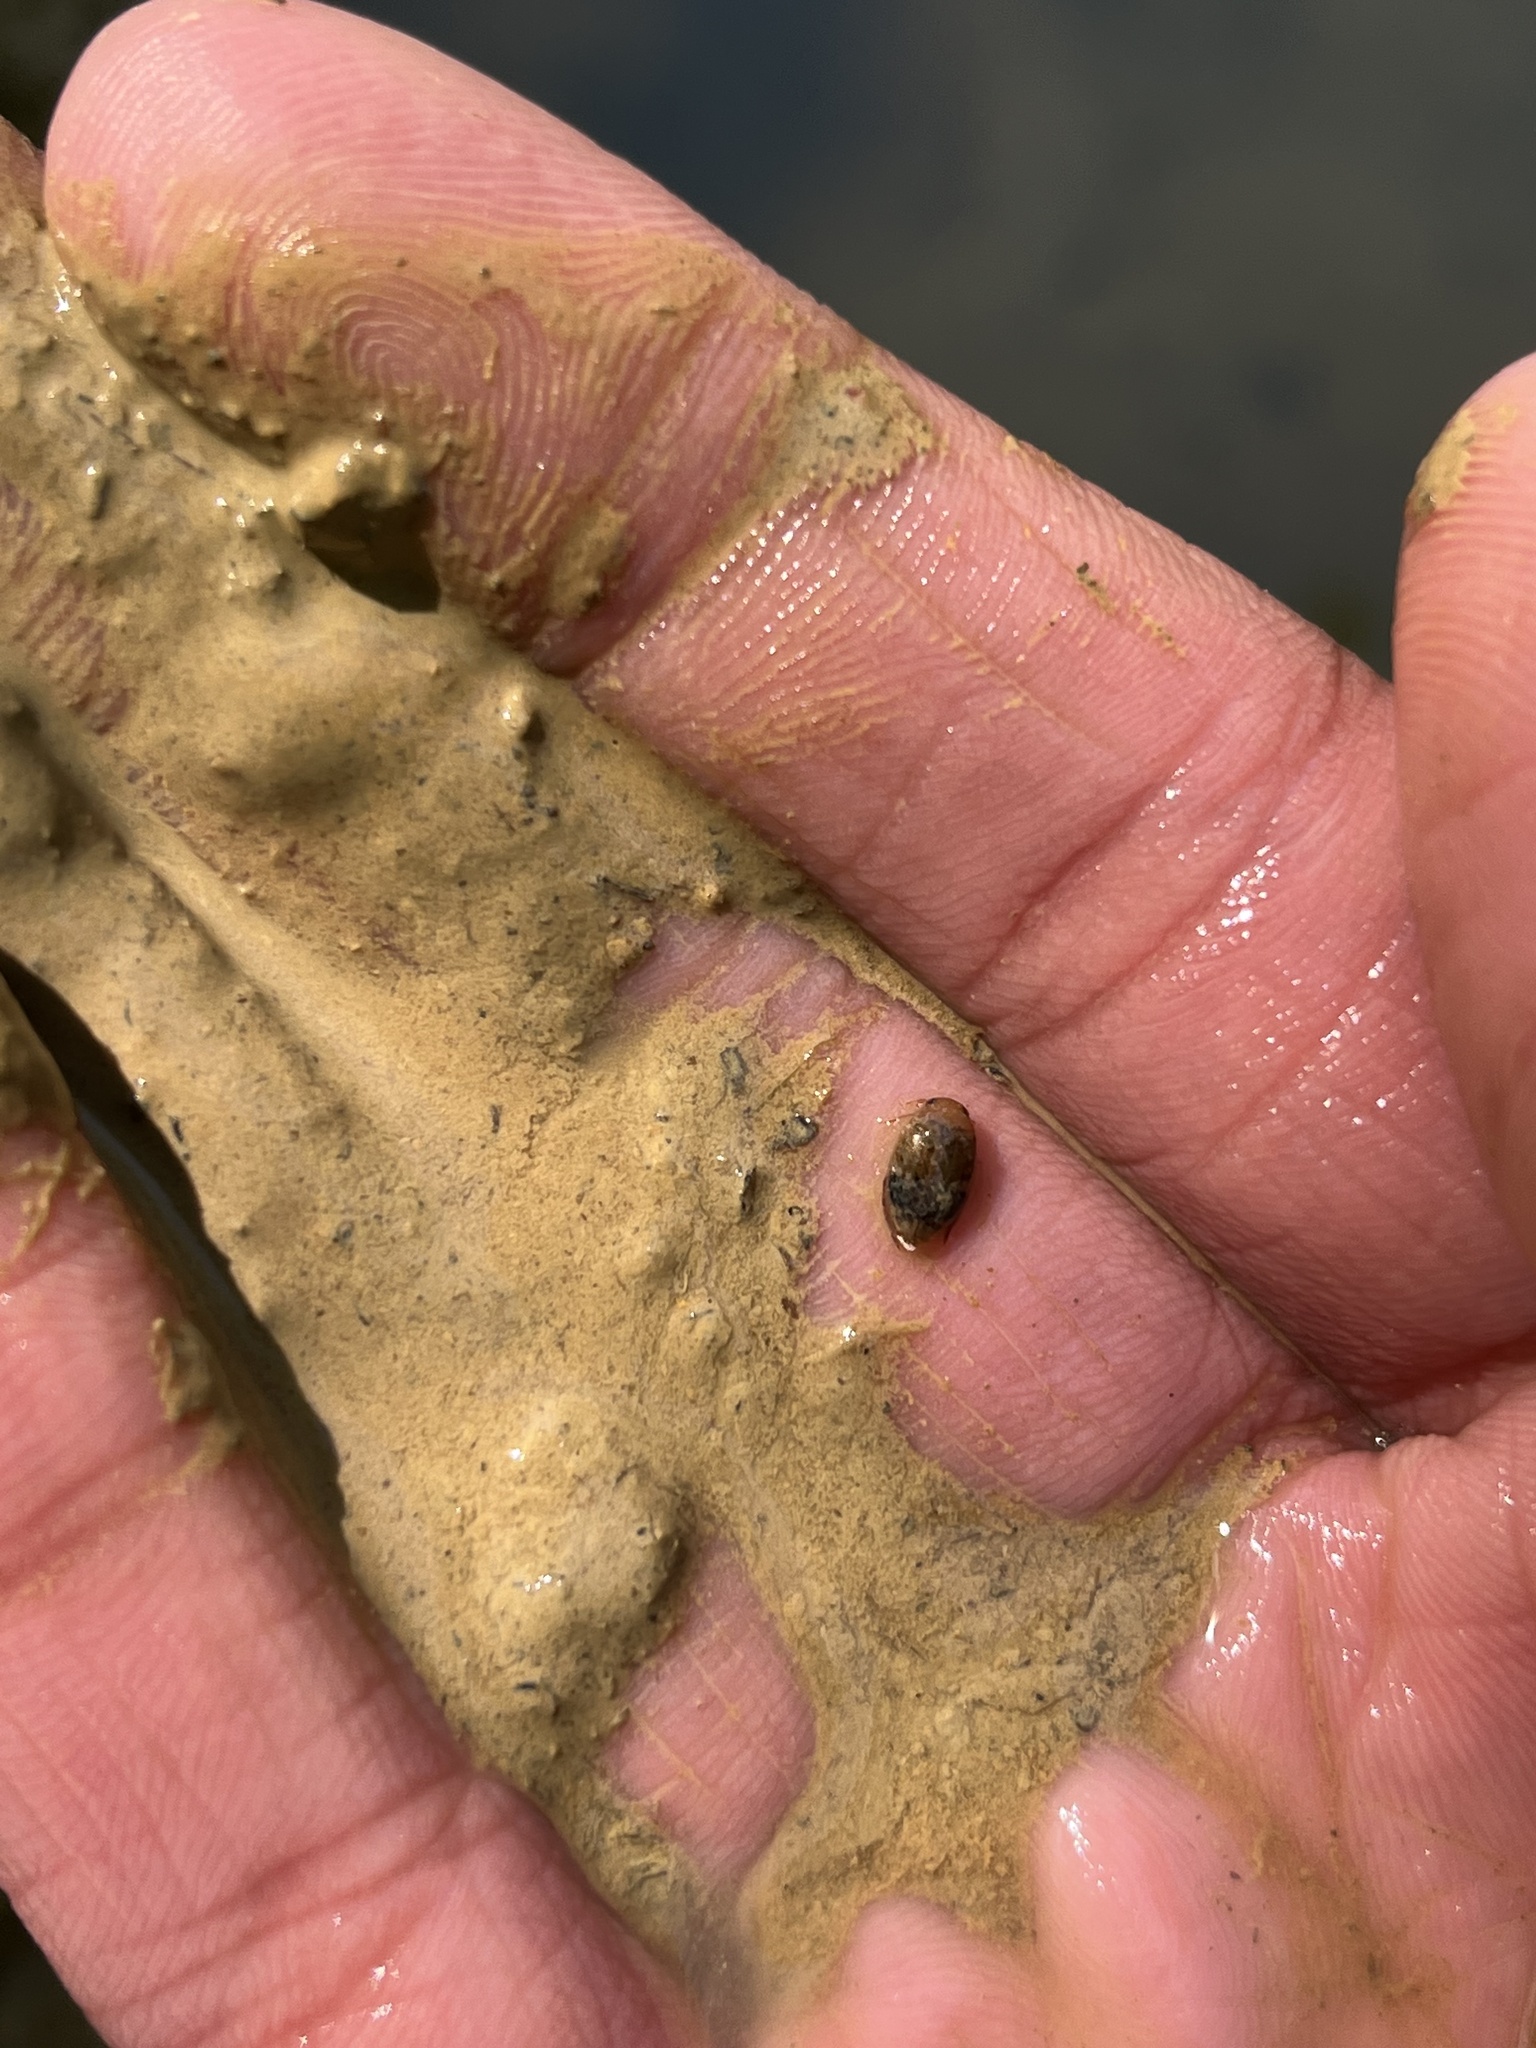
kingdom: Animalia
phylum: Arthropoda
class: Insecta
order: Coleoptera
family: Dytiscidae
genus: Laccophilus
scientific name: Laccophilus fasciatus
